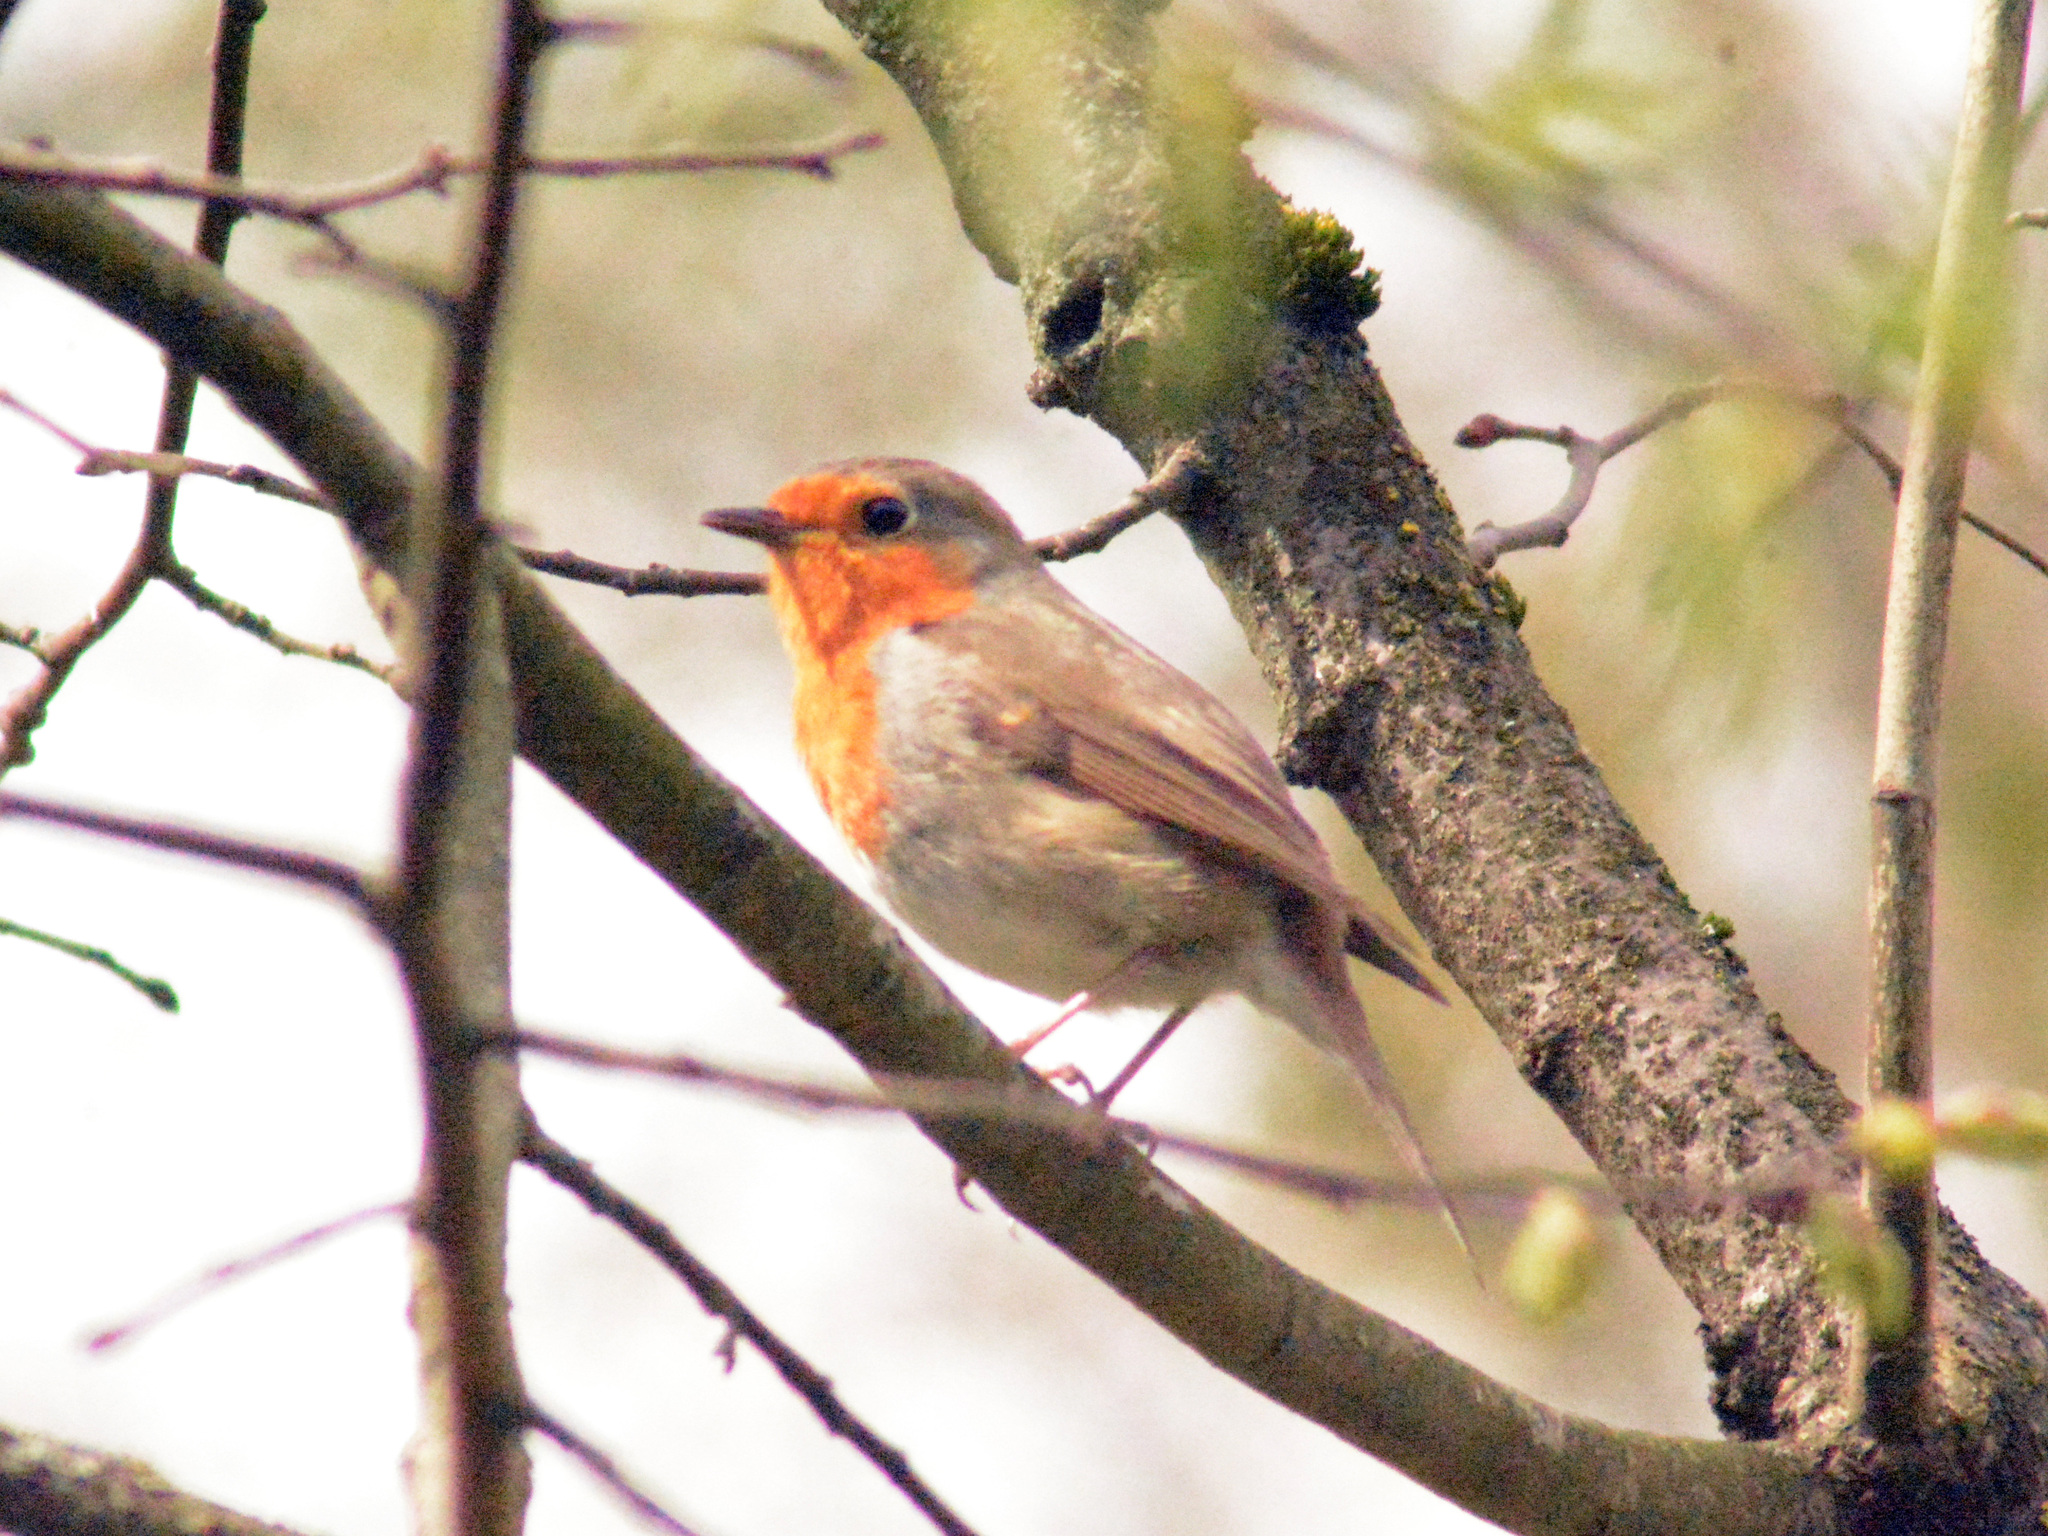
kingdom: Animalia
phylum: Chordata
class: Aves
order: Passeriformes
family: Muscicapidae
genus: Erithacus
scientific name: Erithacus rubecula
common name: European robin
